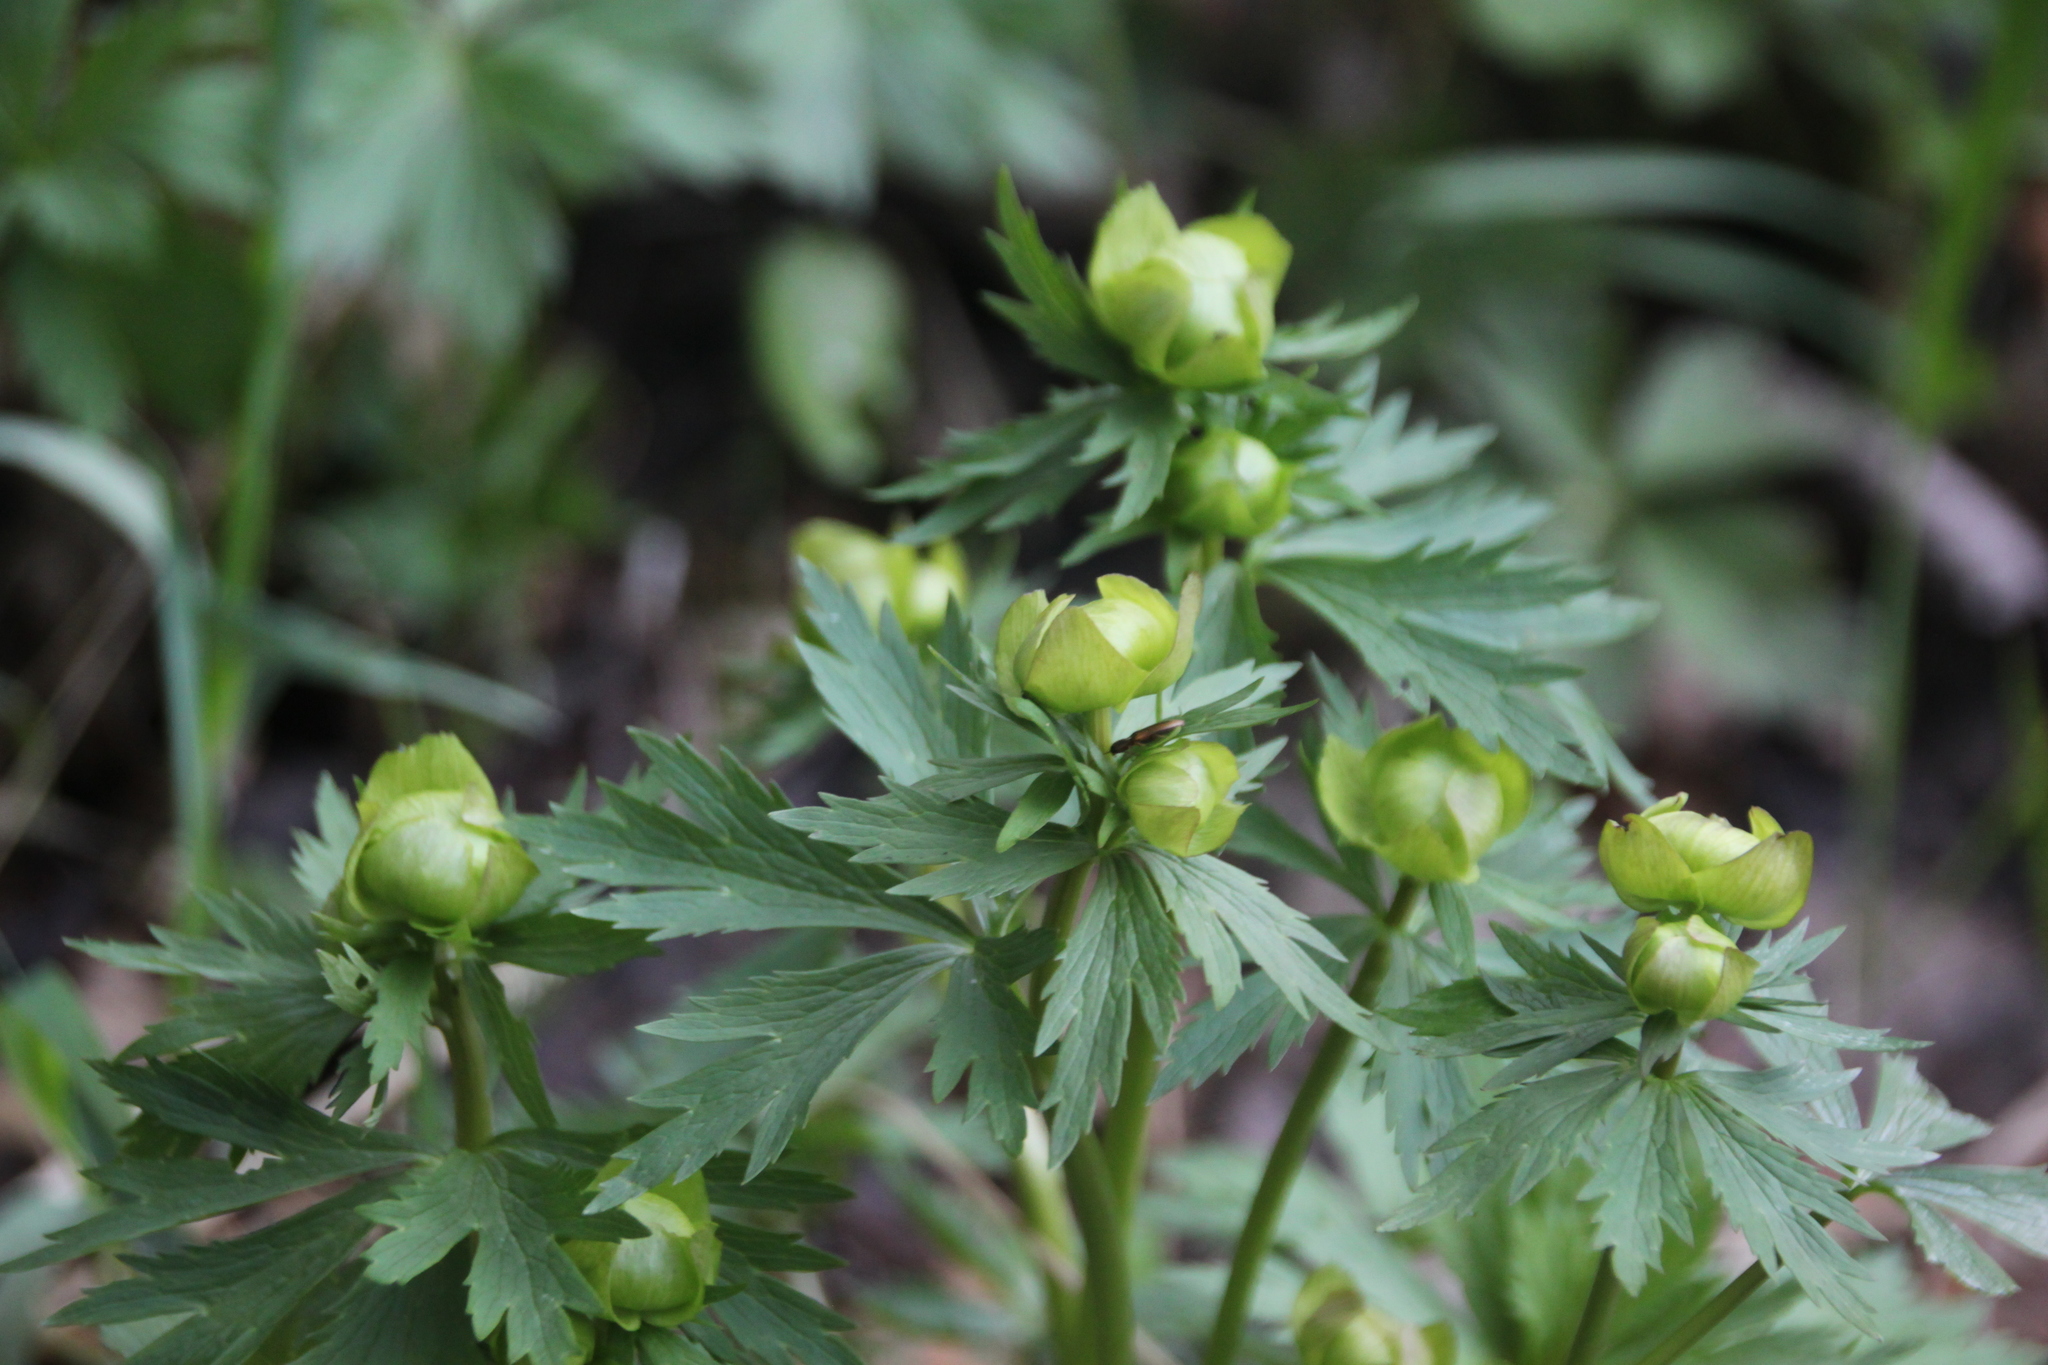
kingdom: Plantae
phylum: Tracheophyta
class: Magnoliopsida
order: Ranunculales
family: Ranunculaceae
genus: Trollius
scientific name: Trollius europaeus
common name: European globeflower
